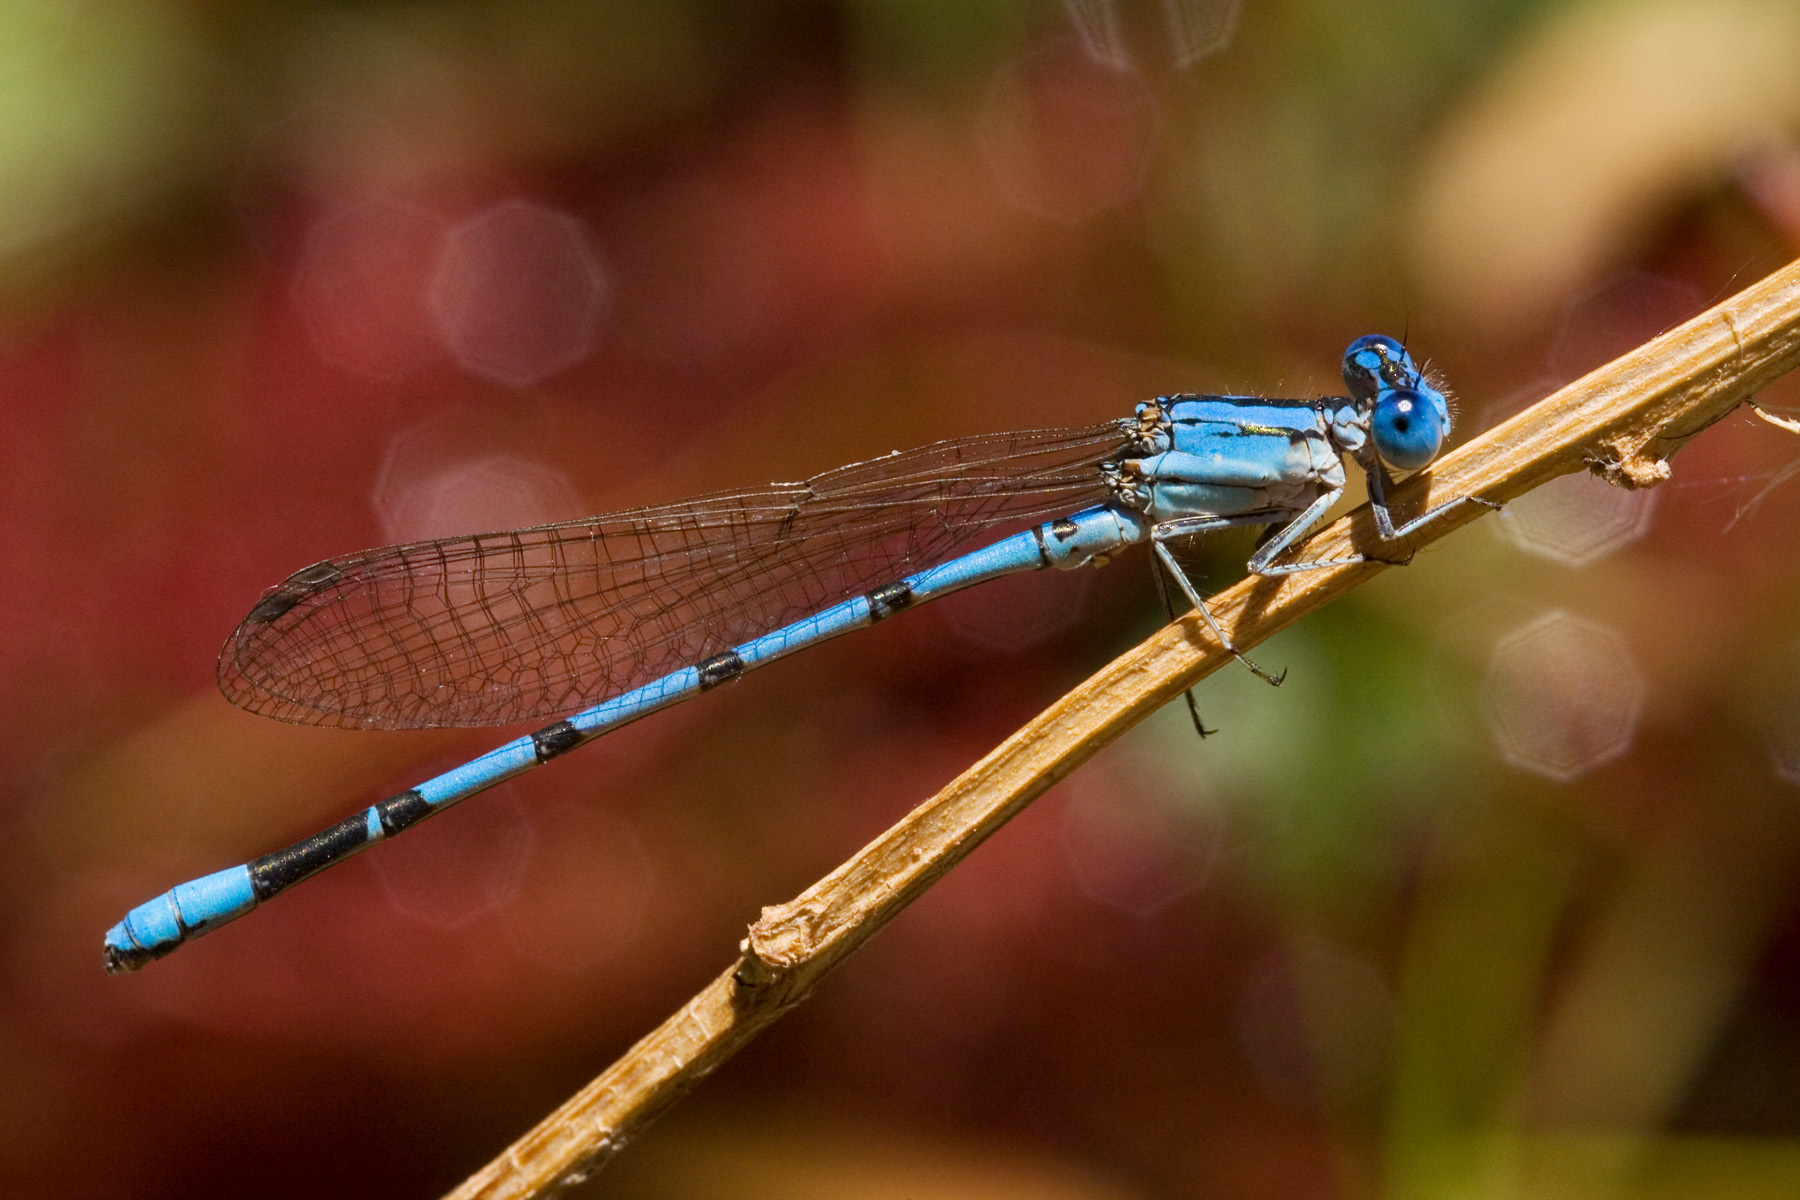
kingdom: Animalia
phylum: Arthropoda
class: Insecta
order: Odonata
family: Coenagrionidae
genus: Argia
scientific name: Argia nahuana
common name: Aztec dancer
